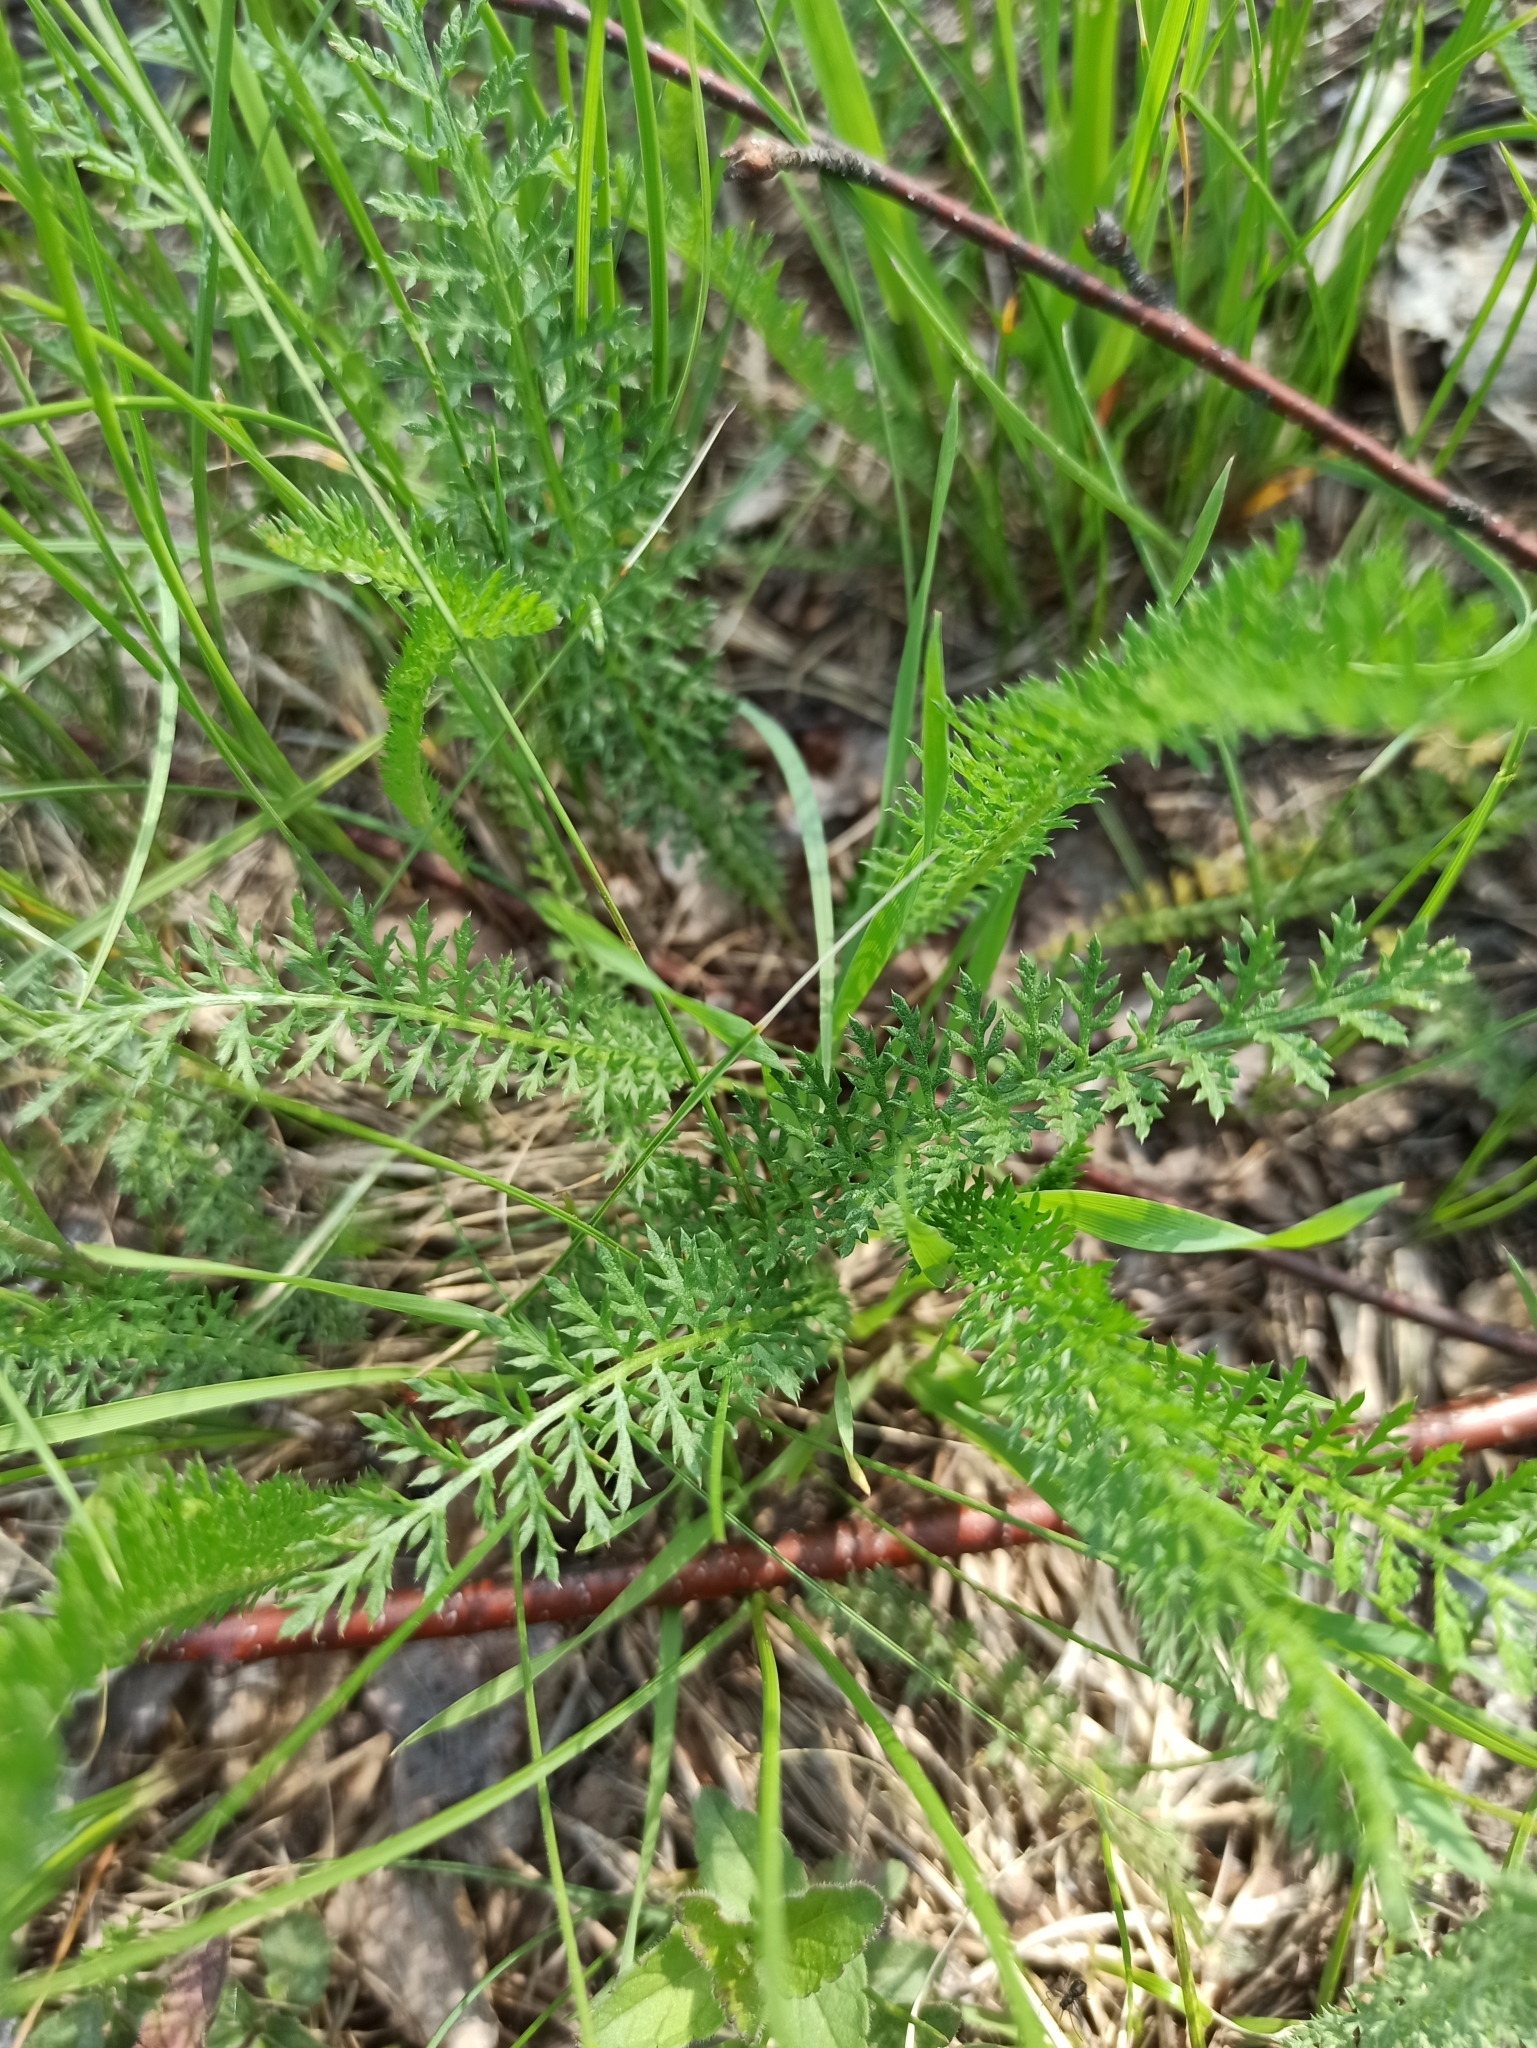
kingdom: Plantae
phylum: Tracheophyta
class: Magnoliopsida
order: Asterales
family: Asteraceae
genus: Achillea
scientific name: Achillea millefolium
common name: Yarrow
